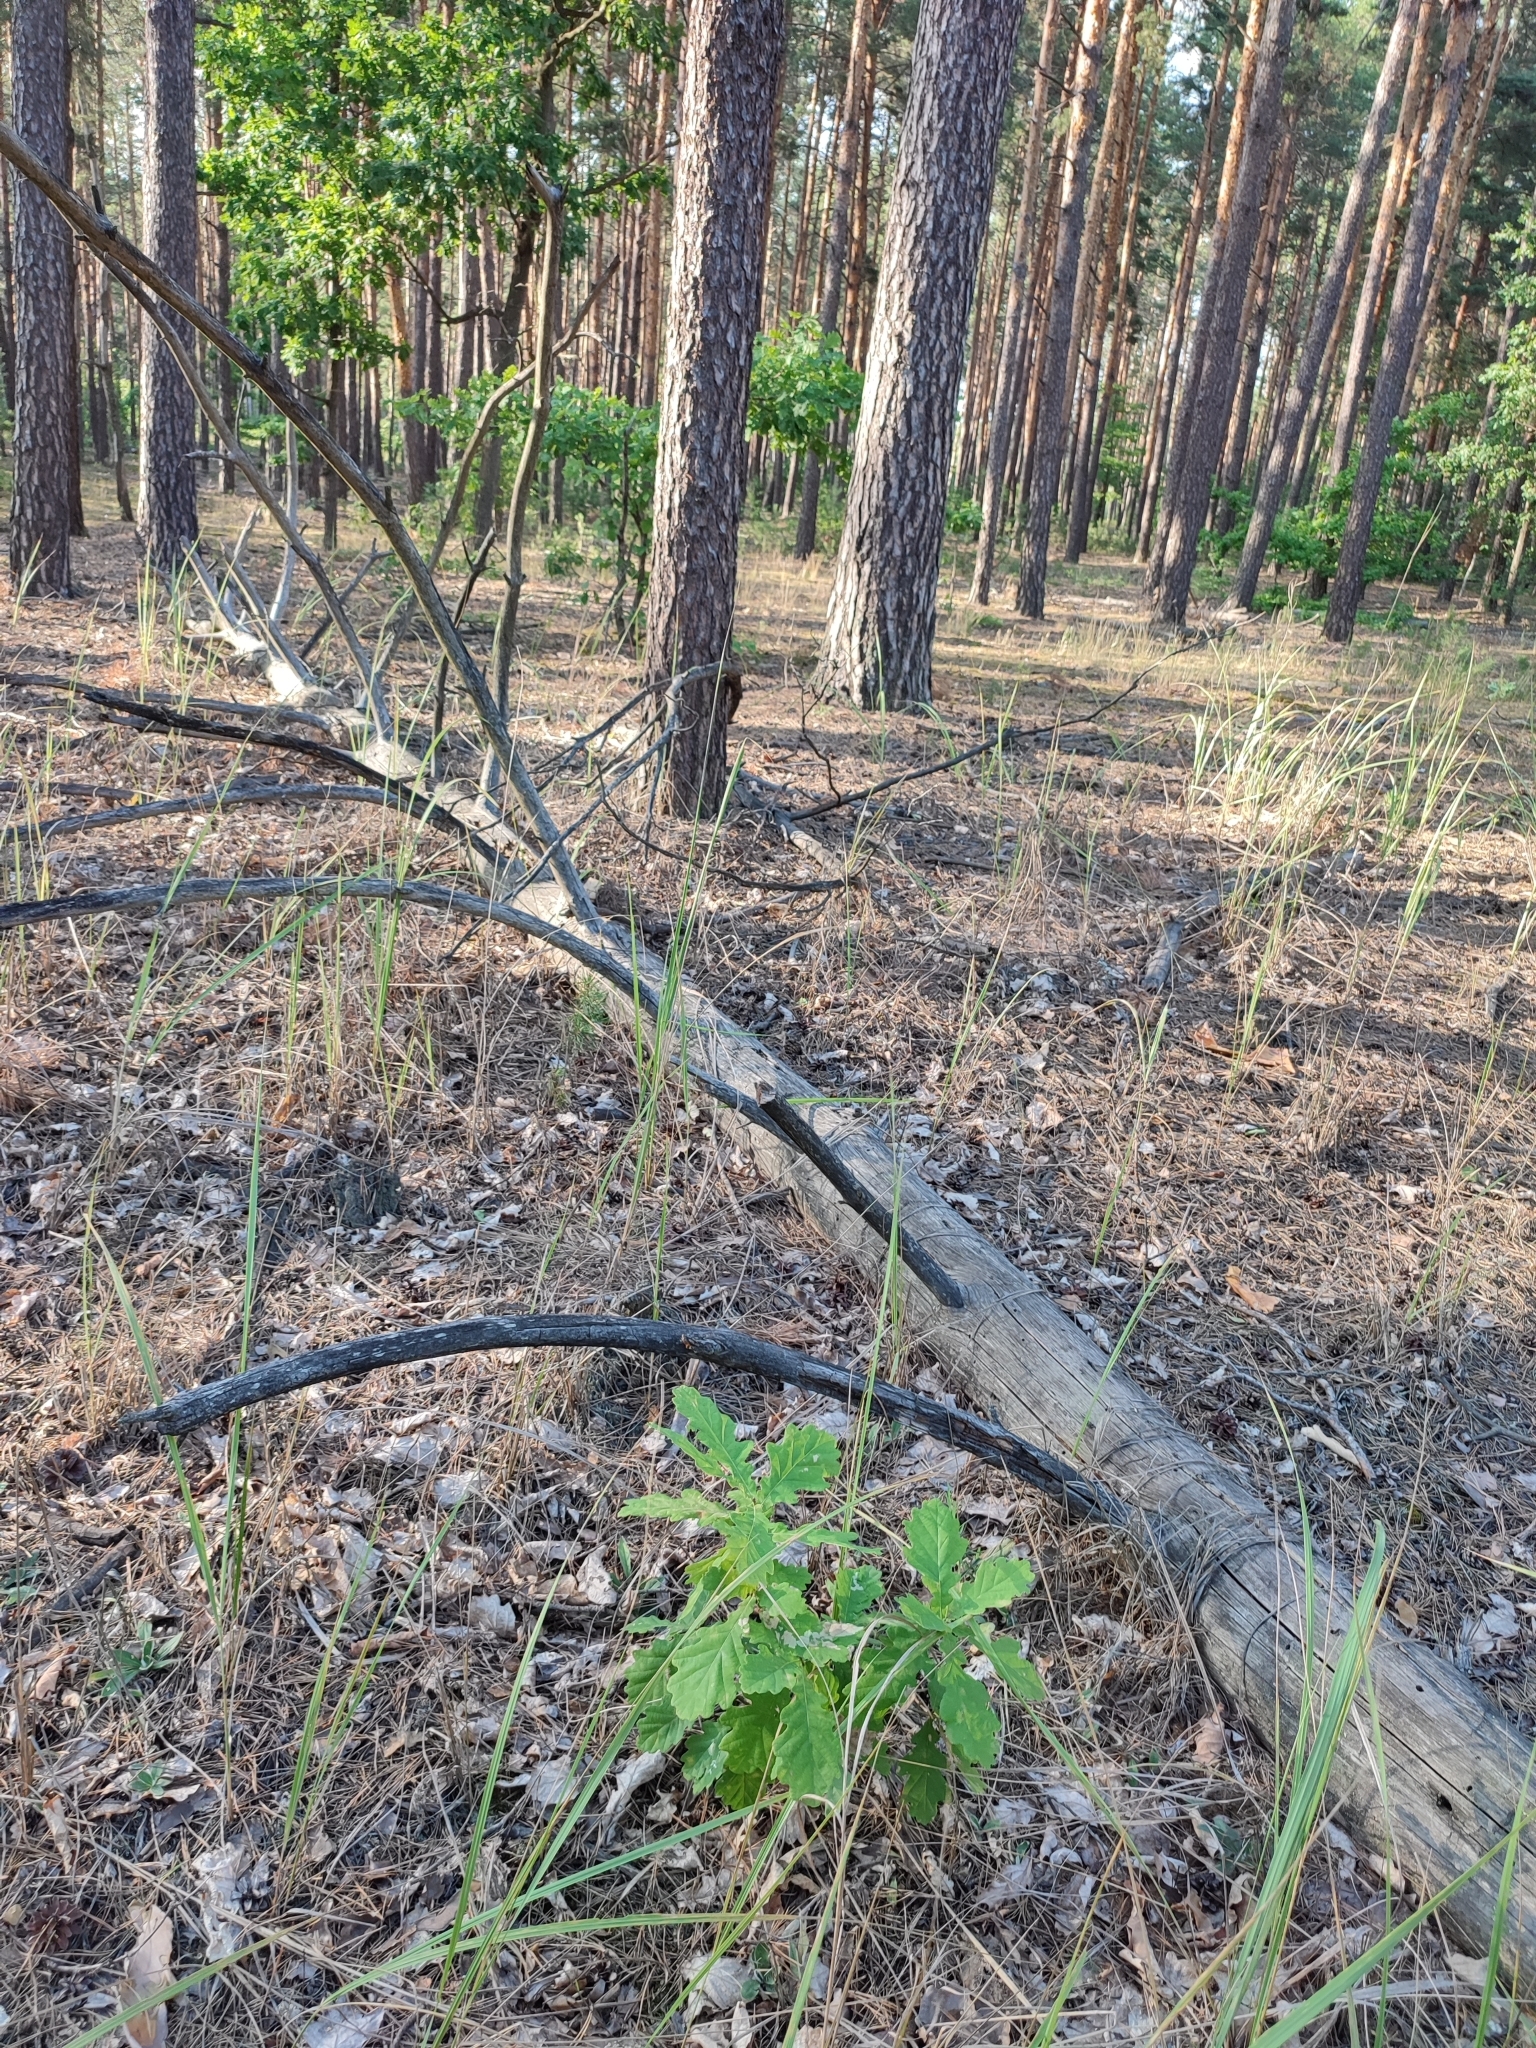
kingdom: Plantae
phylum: Tracheophyta
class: Magnoliopsida
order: Fagales
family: Fagaceae
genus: Quercus
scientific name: Quercus robur
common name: Pedunculate oak
